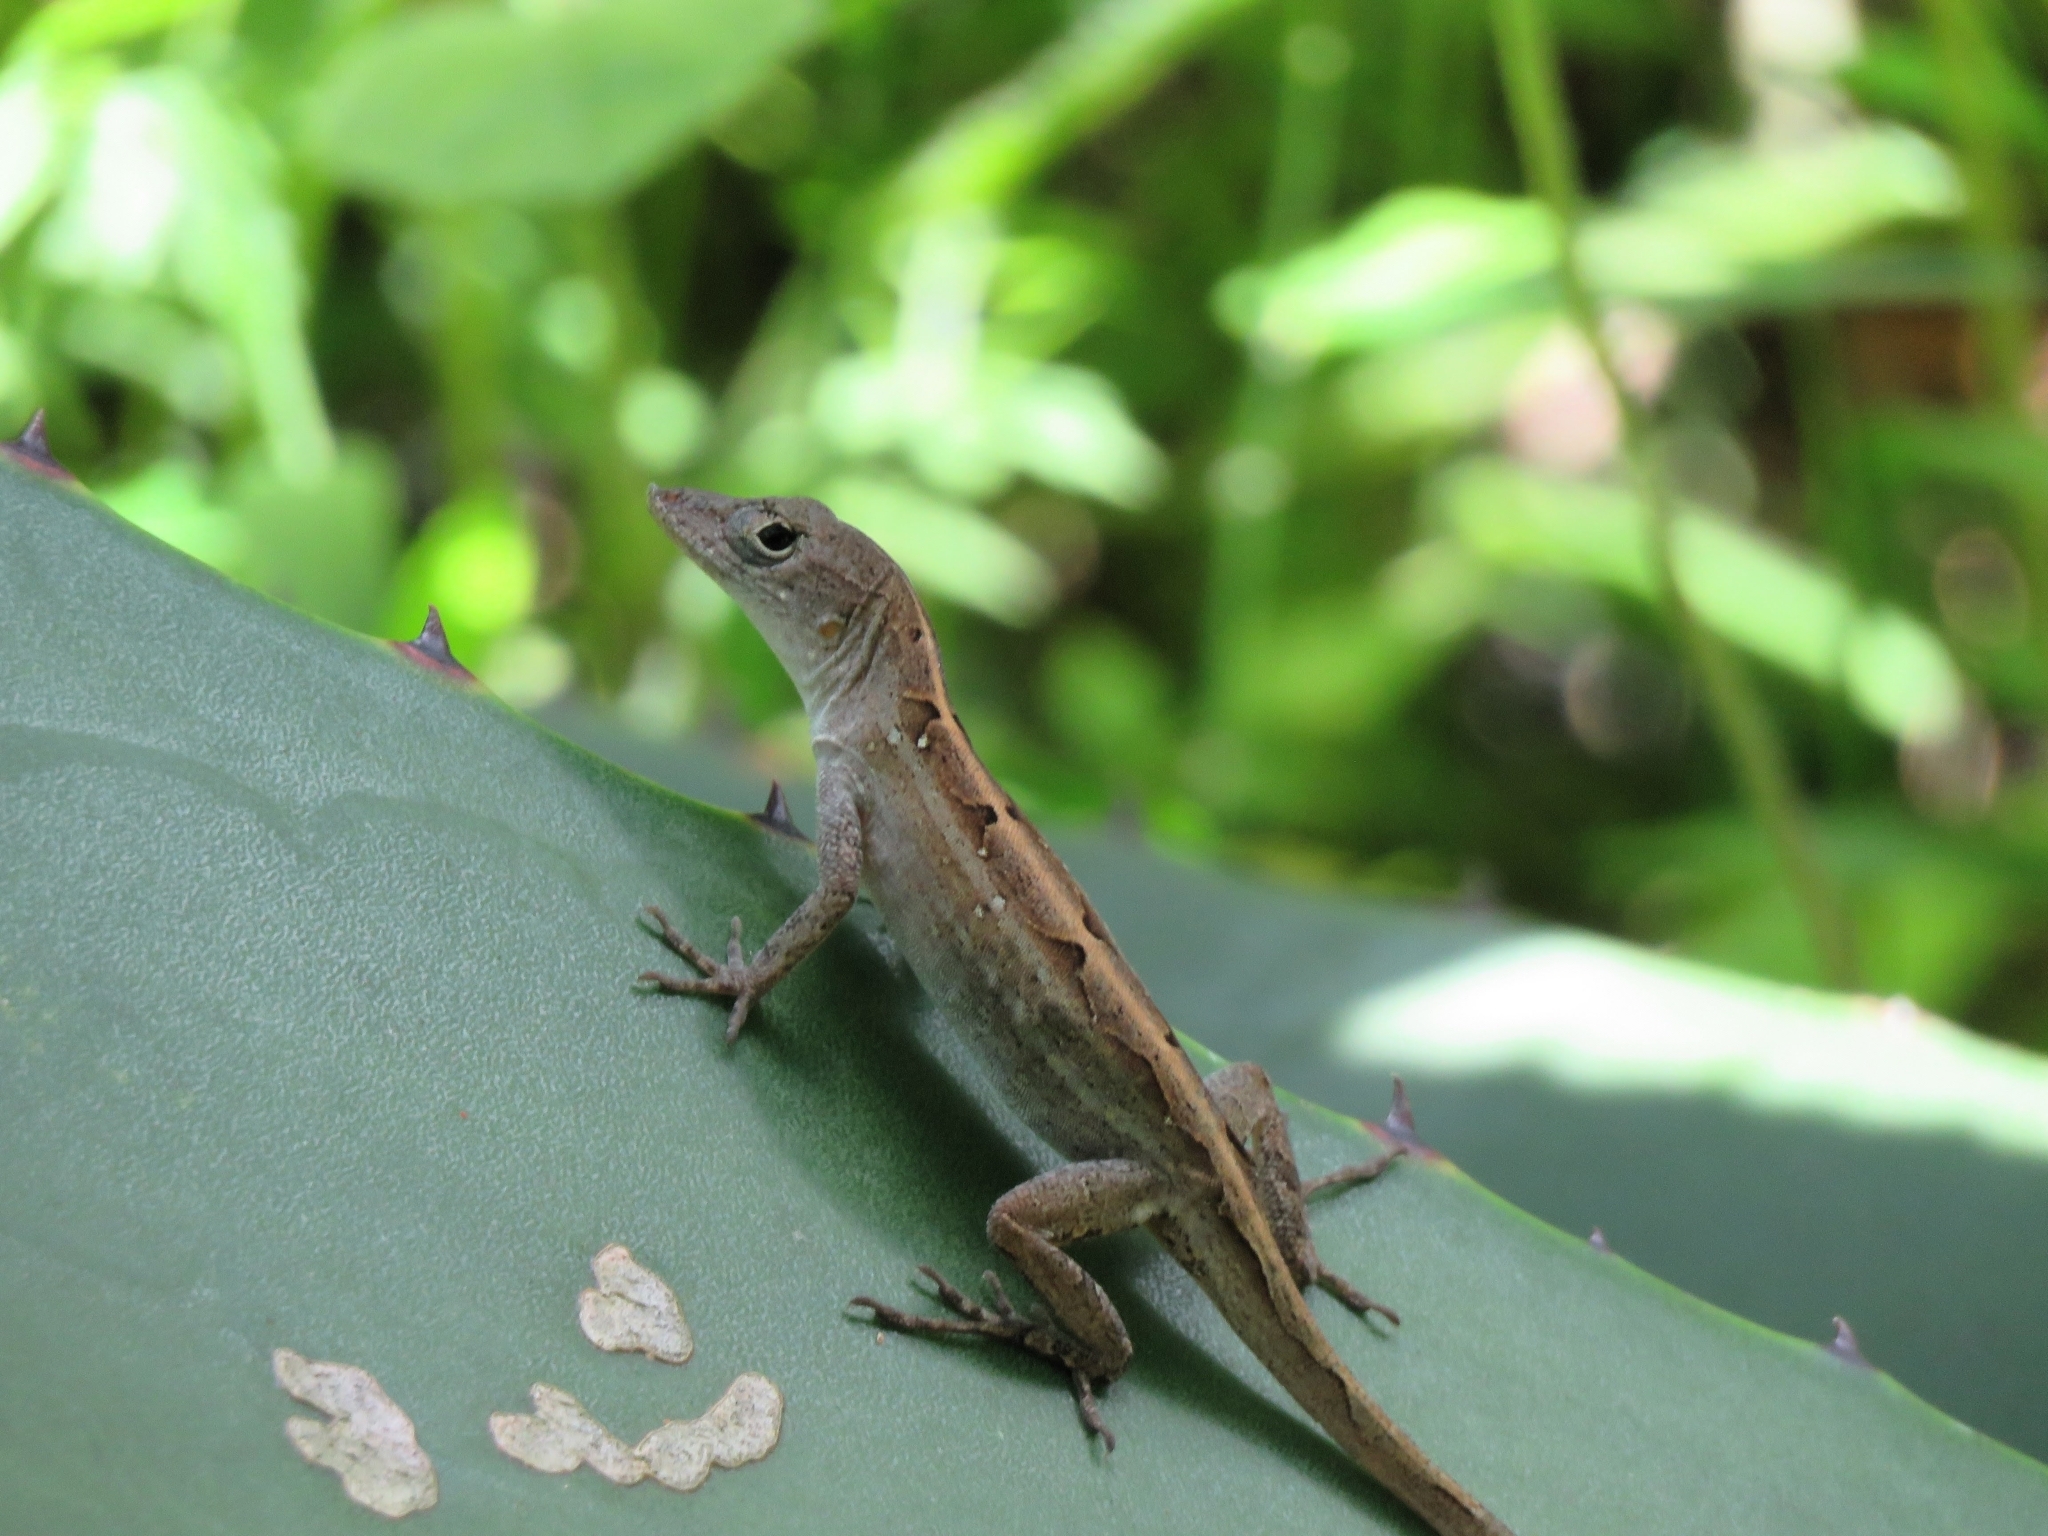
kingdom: Animalia
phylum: Chordata
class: Squamata
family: Dactyloidae
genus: Anolis
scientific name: Anolis sagrei
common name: Brown anole
